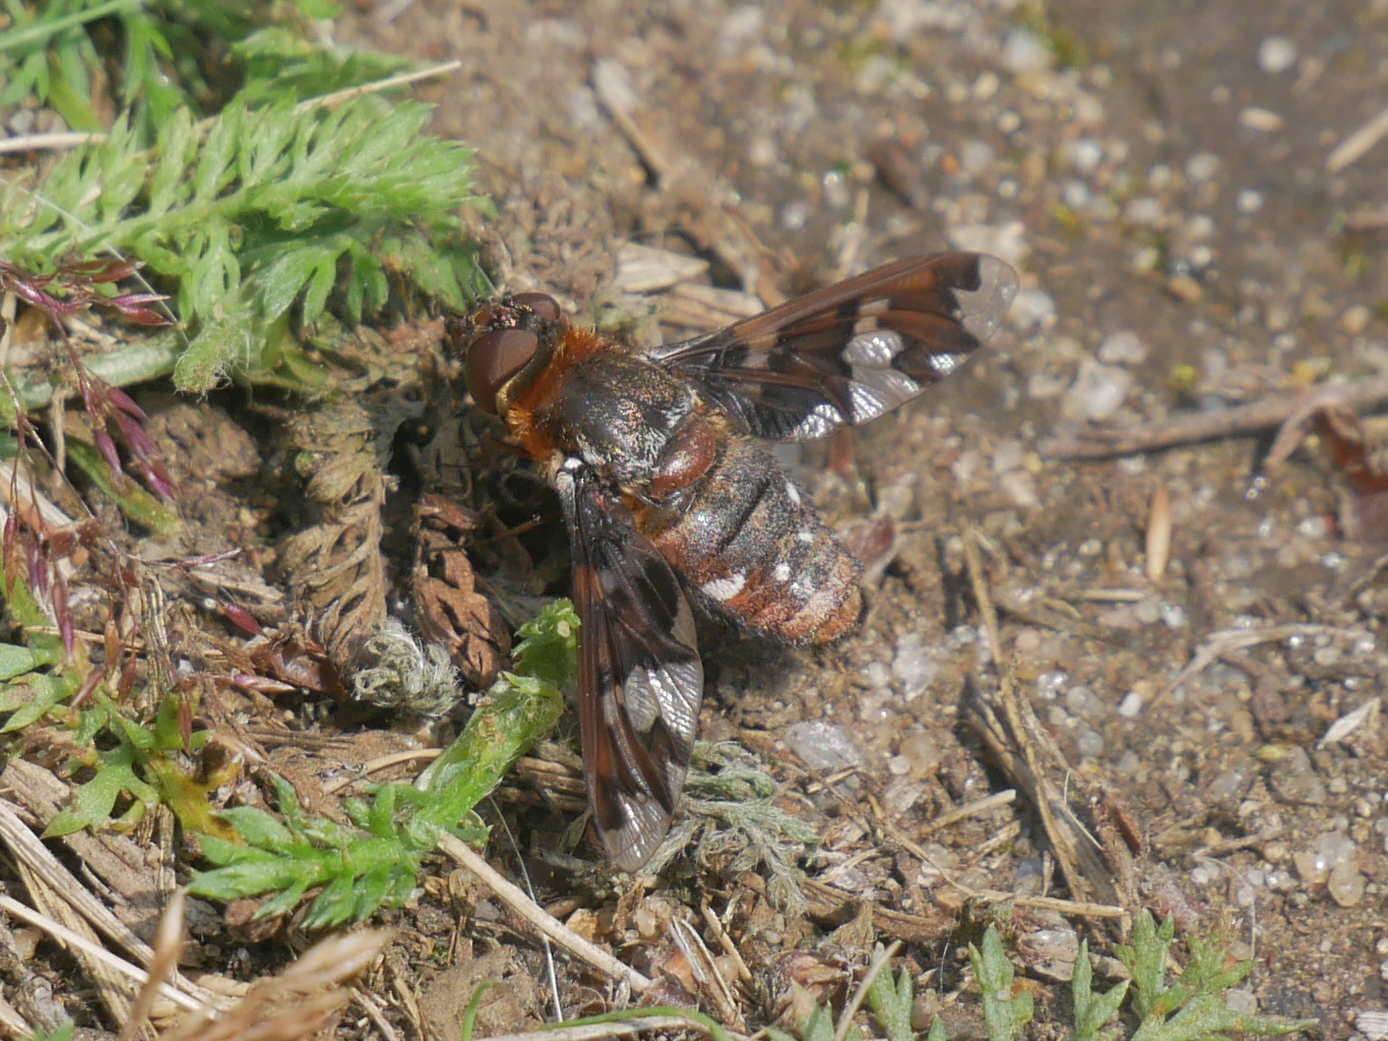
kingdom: Animalia
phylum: Arthropoda
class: Insecta
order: Diptera
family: Bombyliidae
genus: Exoprosopa
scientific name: Exoprosopa capucina
